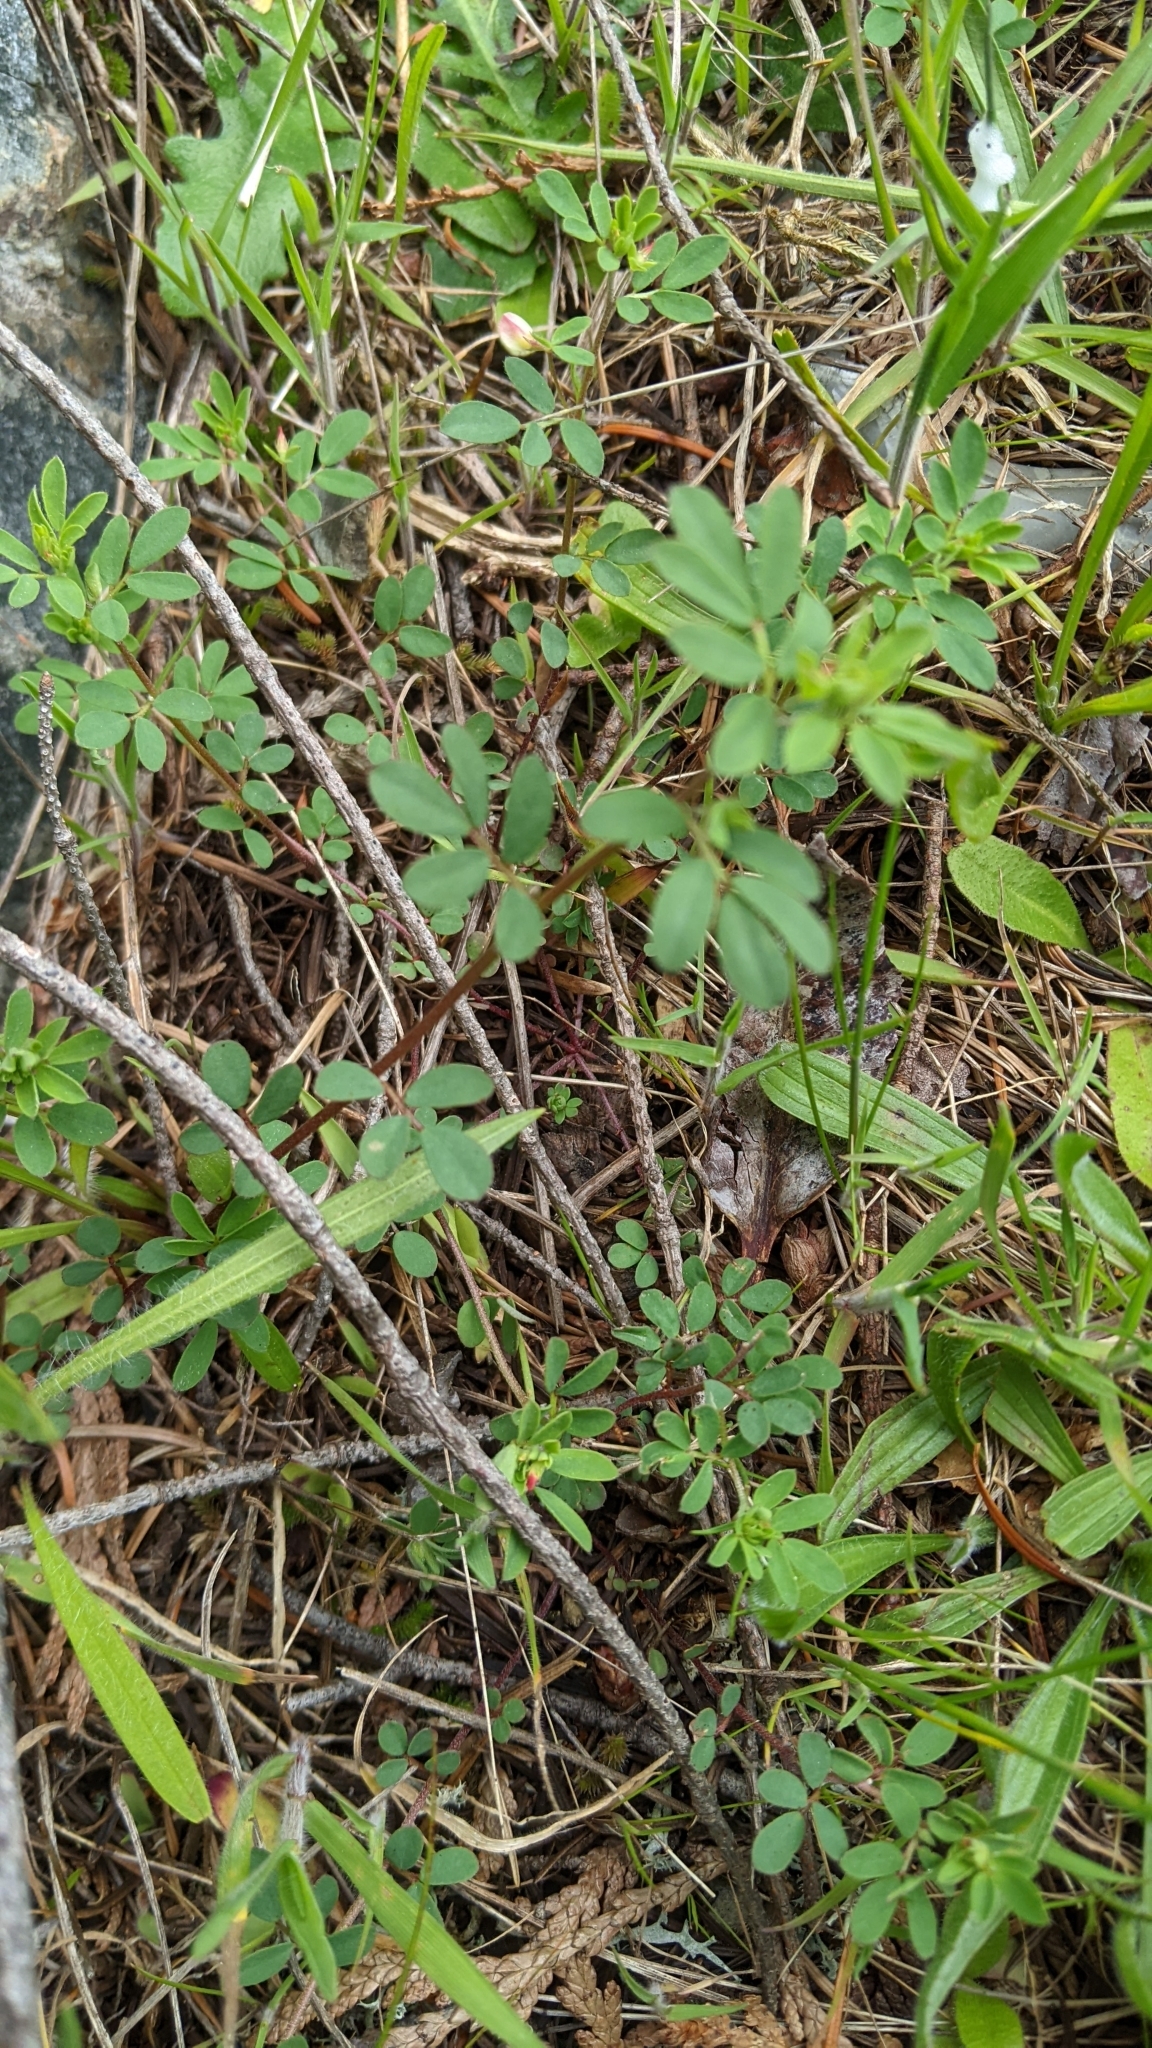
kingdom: Plantae
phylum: Tracheophyta
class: Magnoliopsida
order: Fabales
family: Fabaceae
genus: Acmispon
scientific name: Acmispon parviflorus
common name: Desert deer-vetch
